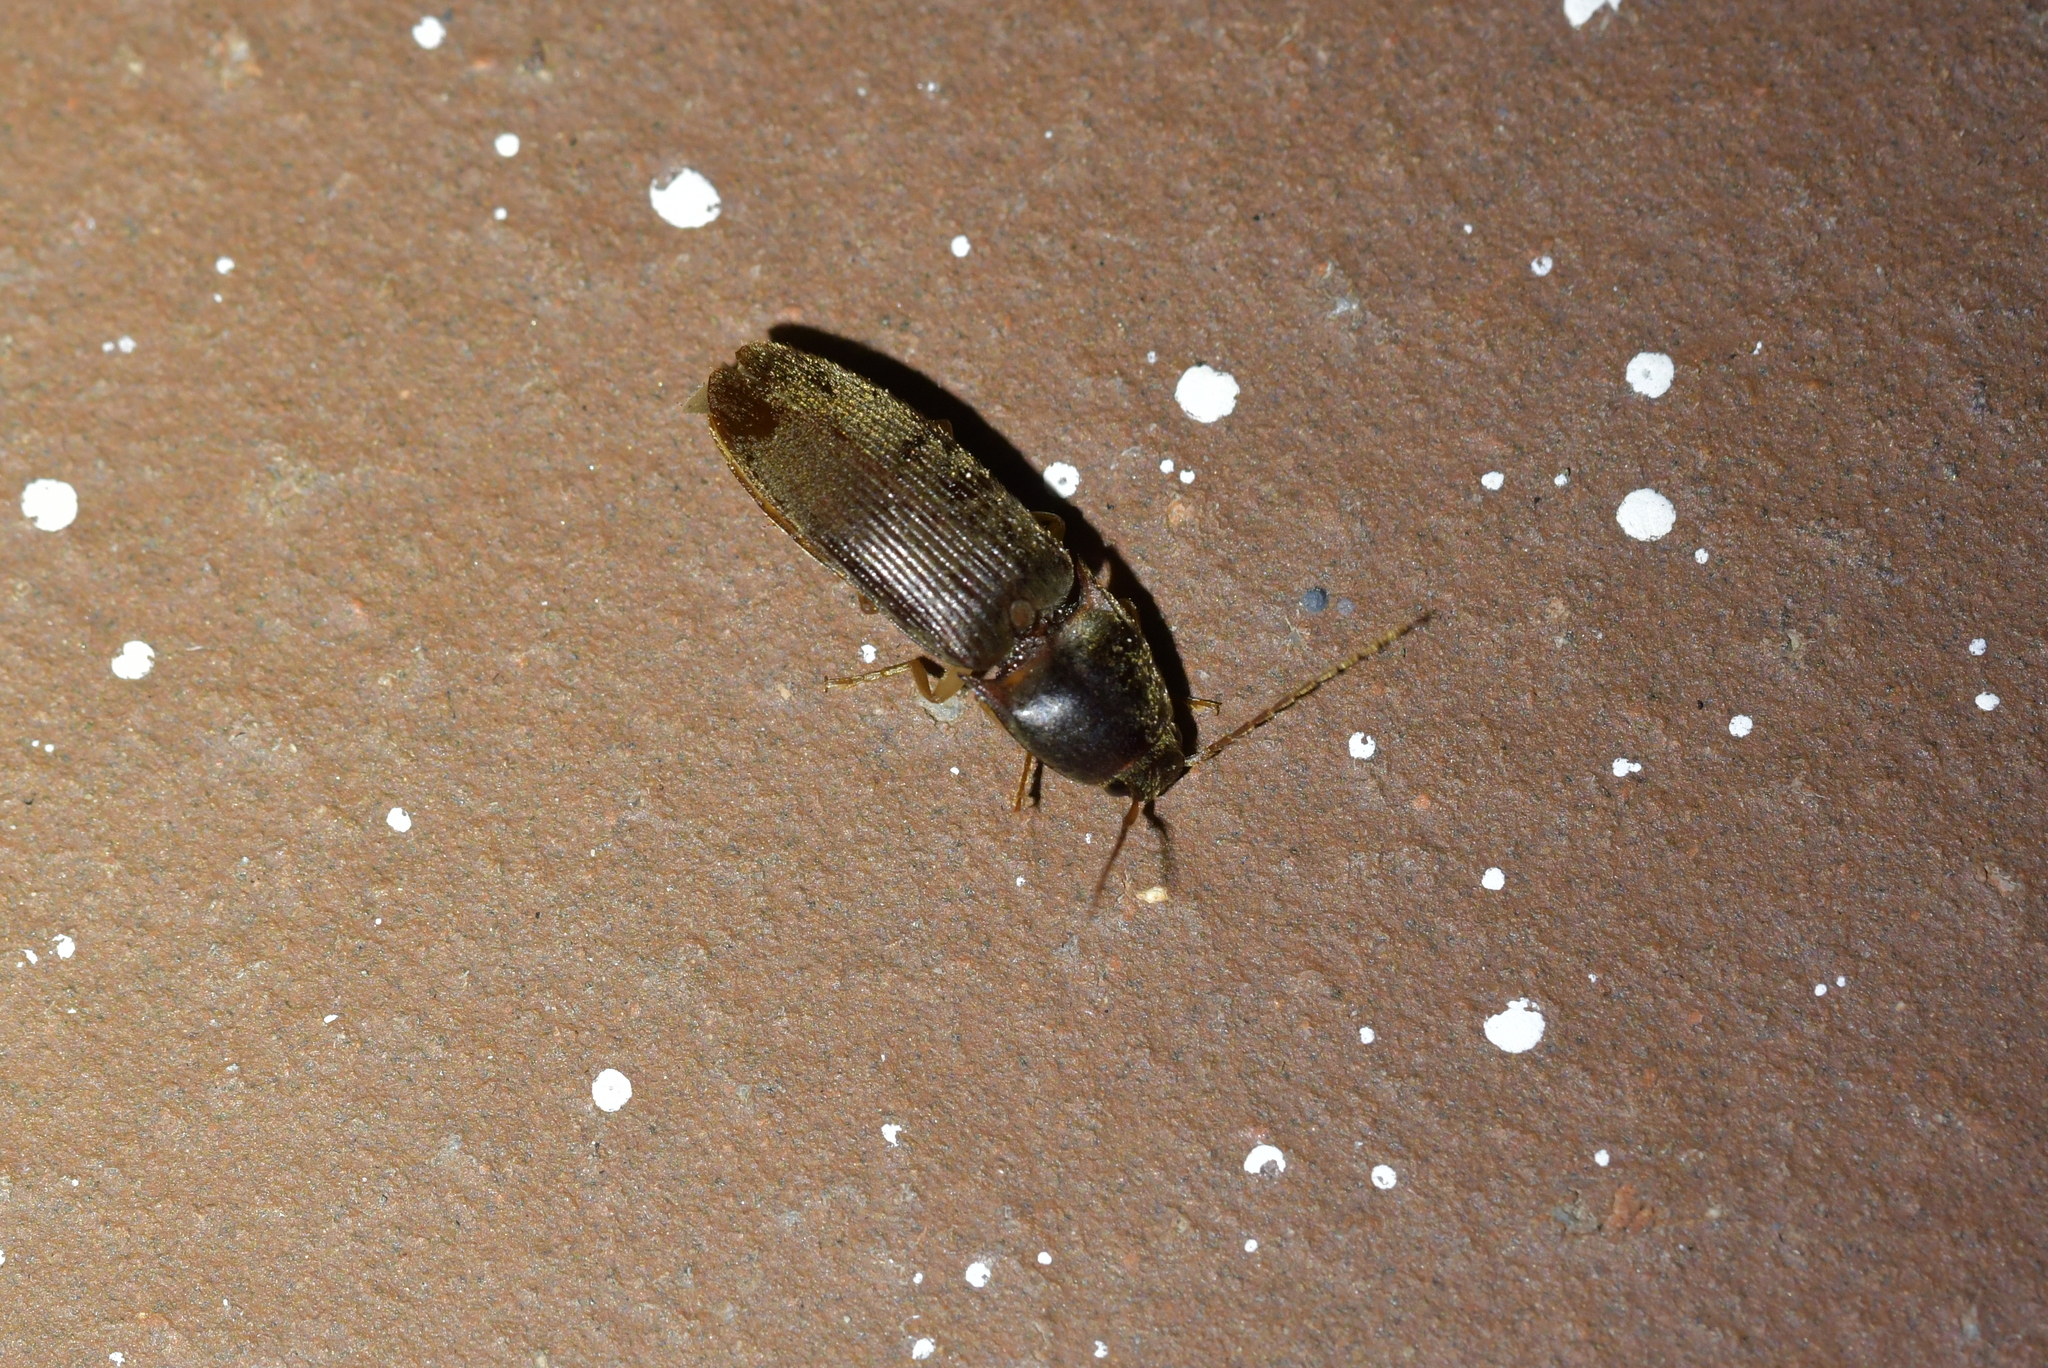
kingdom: Animalia
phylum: Arthropoda
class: Insecta
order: Coleoptera
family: Elateridae
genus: Conoderus
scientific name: Conoderus exsul
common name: Click beetle
